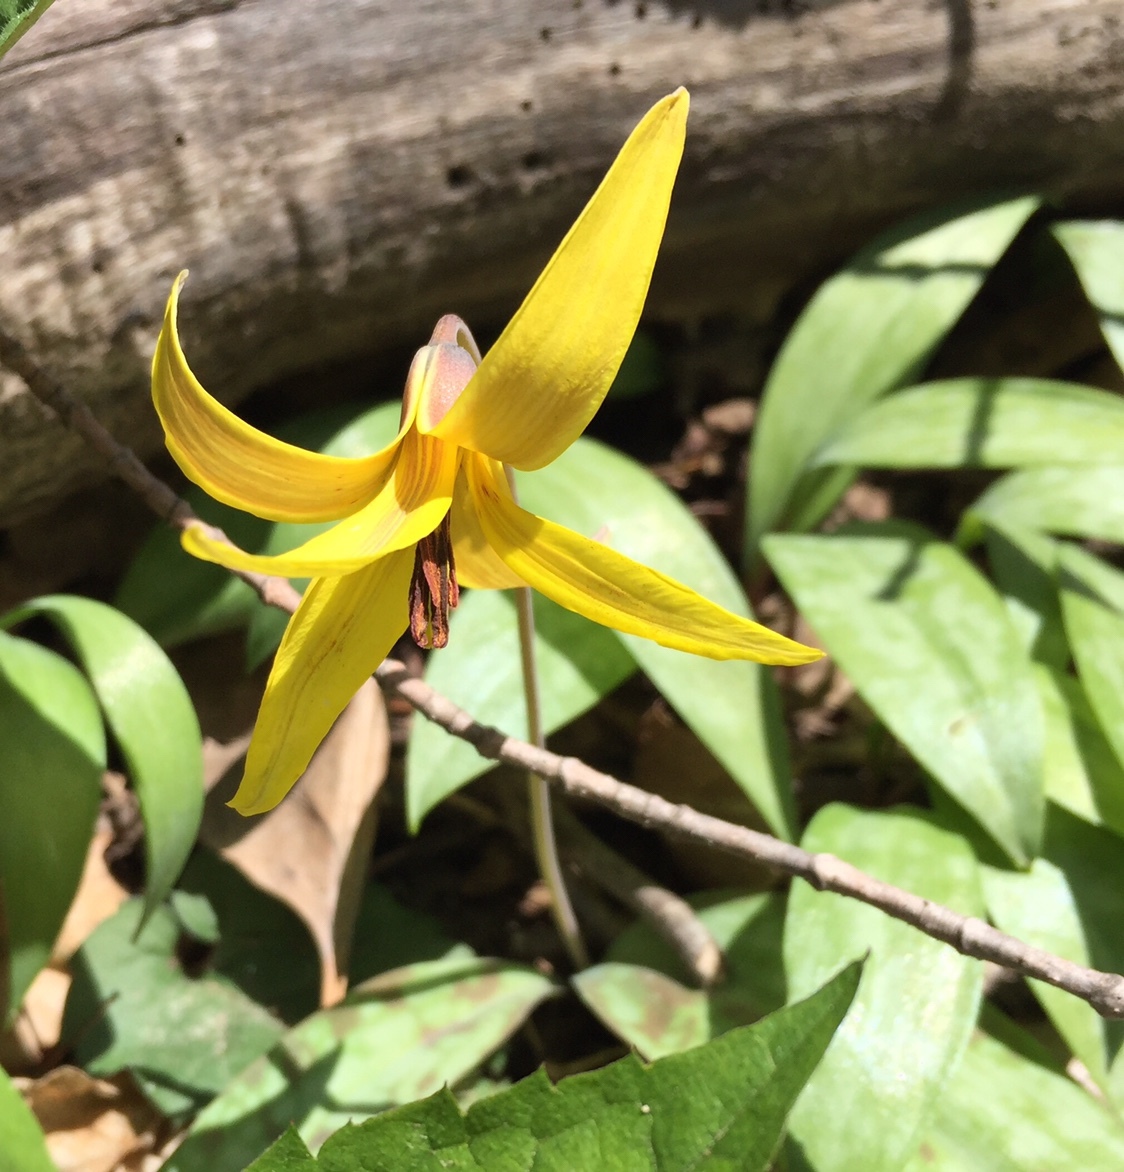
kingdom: Plantae
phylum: Tracheophyta
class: Liliopsida
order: Liliales
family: Liliaceae
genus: Erythronium
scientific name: Erythronium americanum
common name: Yellow adder's-tongue
